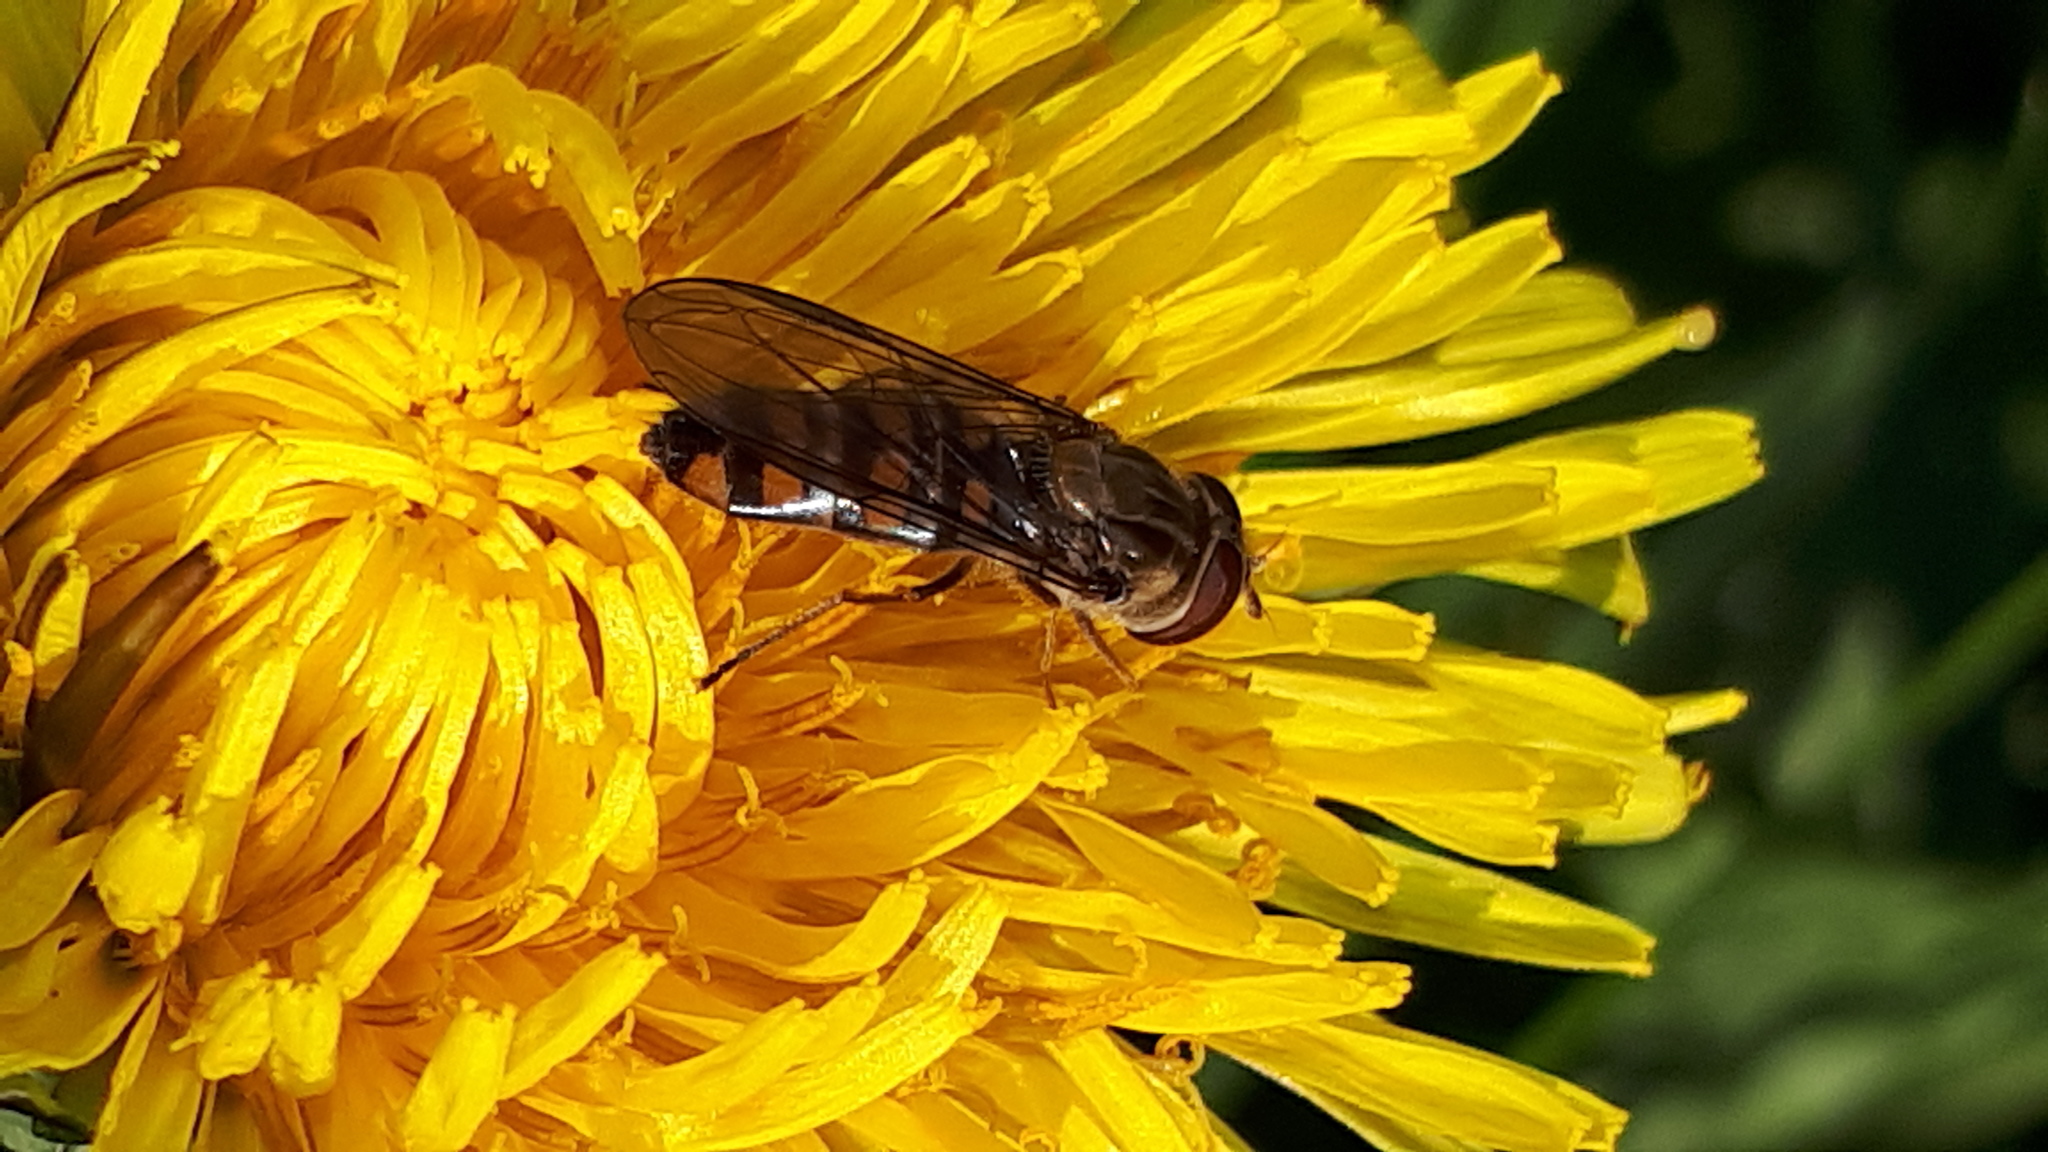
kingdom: Animalia
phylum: Arthropoda
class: Insecta
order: Diptera
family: Syrphidae
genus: Episyrphus
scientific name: Episyrphus balteatus
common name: Marmalade hoverfly
